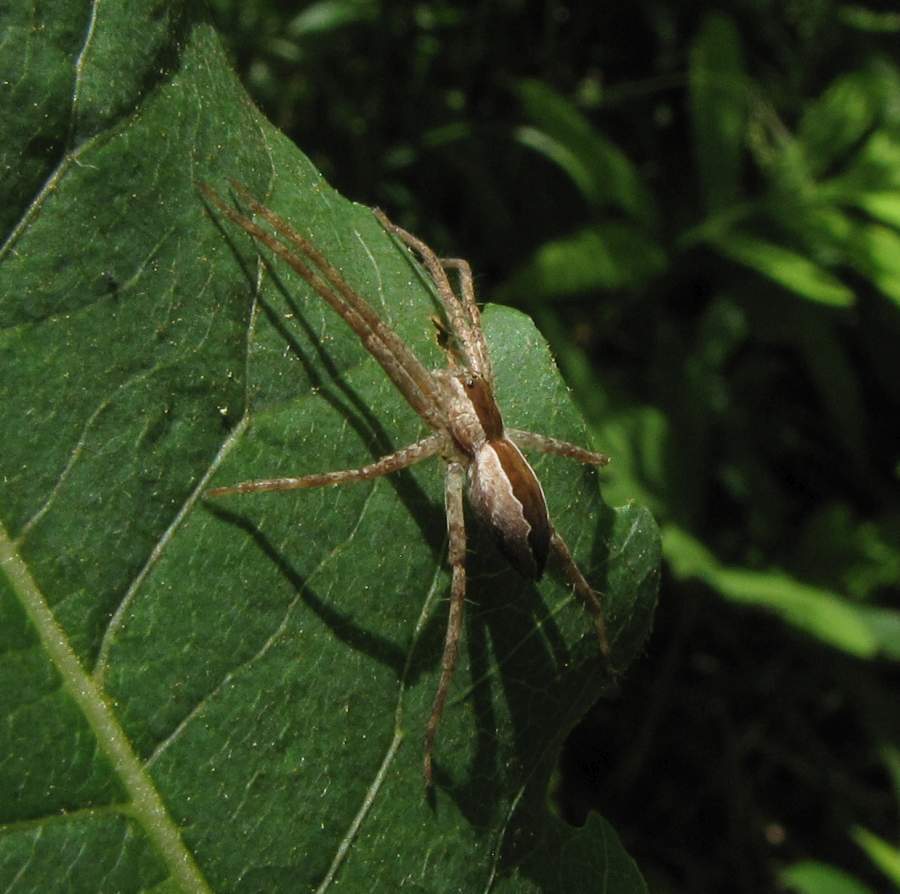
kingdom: Animalia
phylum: Arthropoda
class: Arachnida
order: Araneae
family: Pisauridae
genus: Pisaurina
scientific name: Pisaurina mira
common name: American nursery web spider
